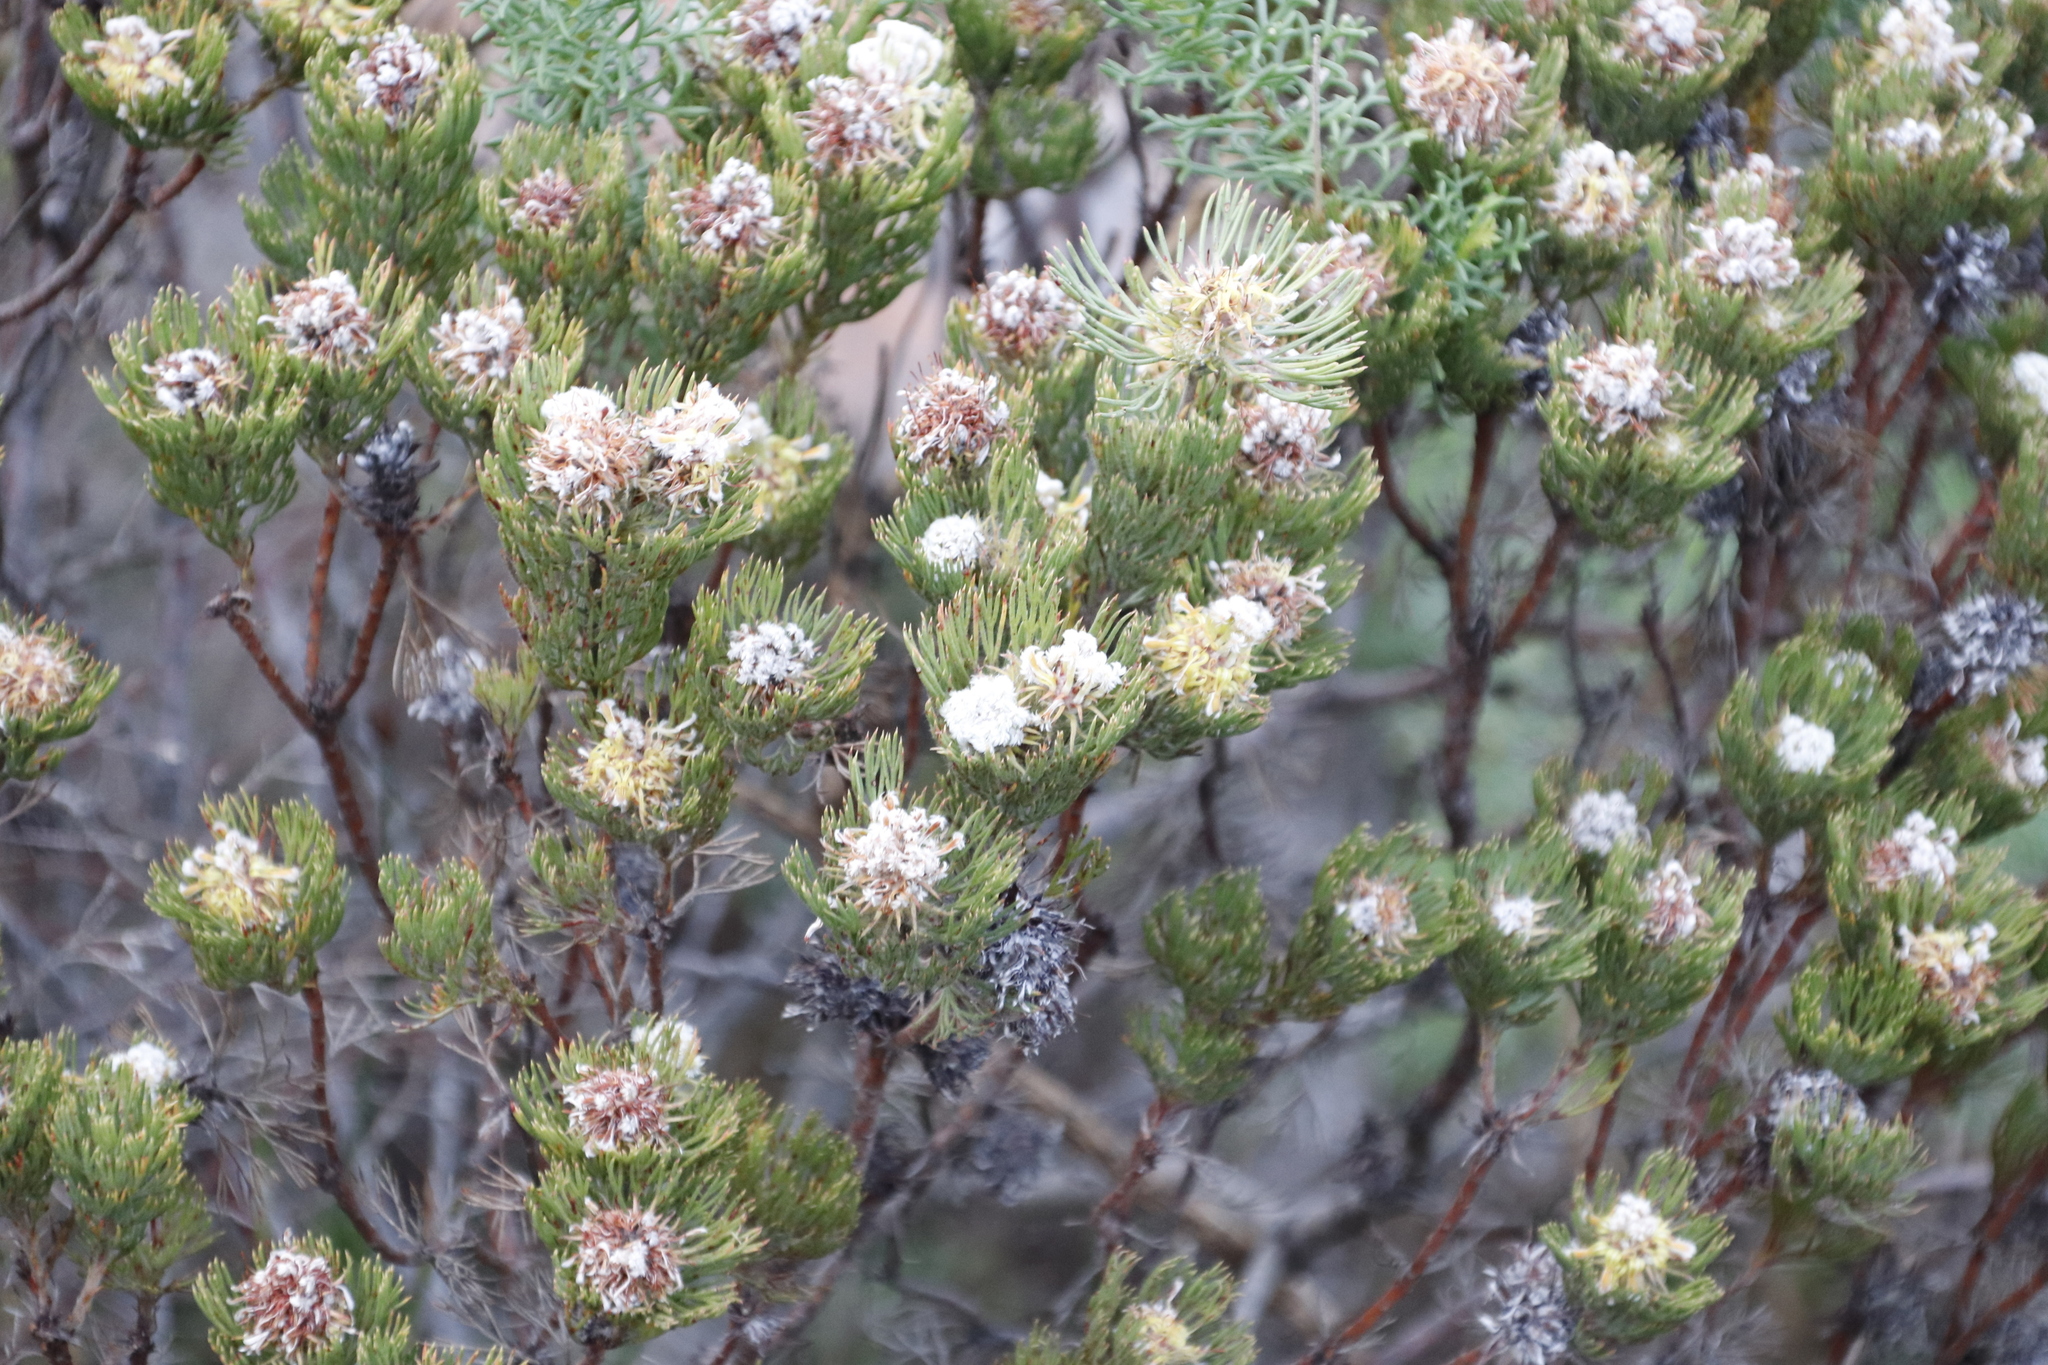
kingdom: Plantae
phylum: Tracheophyta
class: Magnoliopsida
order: Proteales
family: Proteaceae
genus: Serruria
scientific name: Serruria villosa
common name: Golden spiderhead
